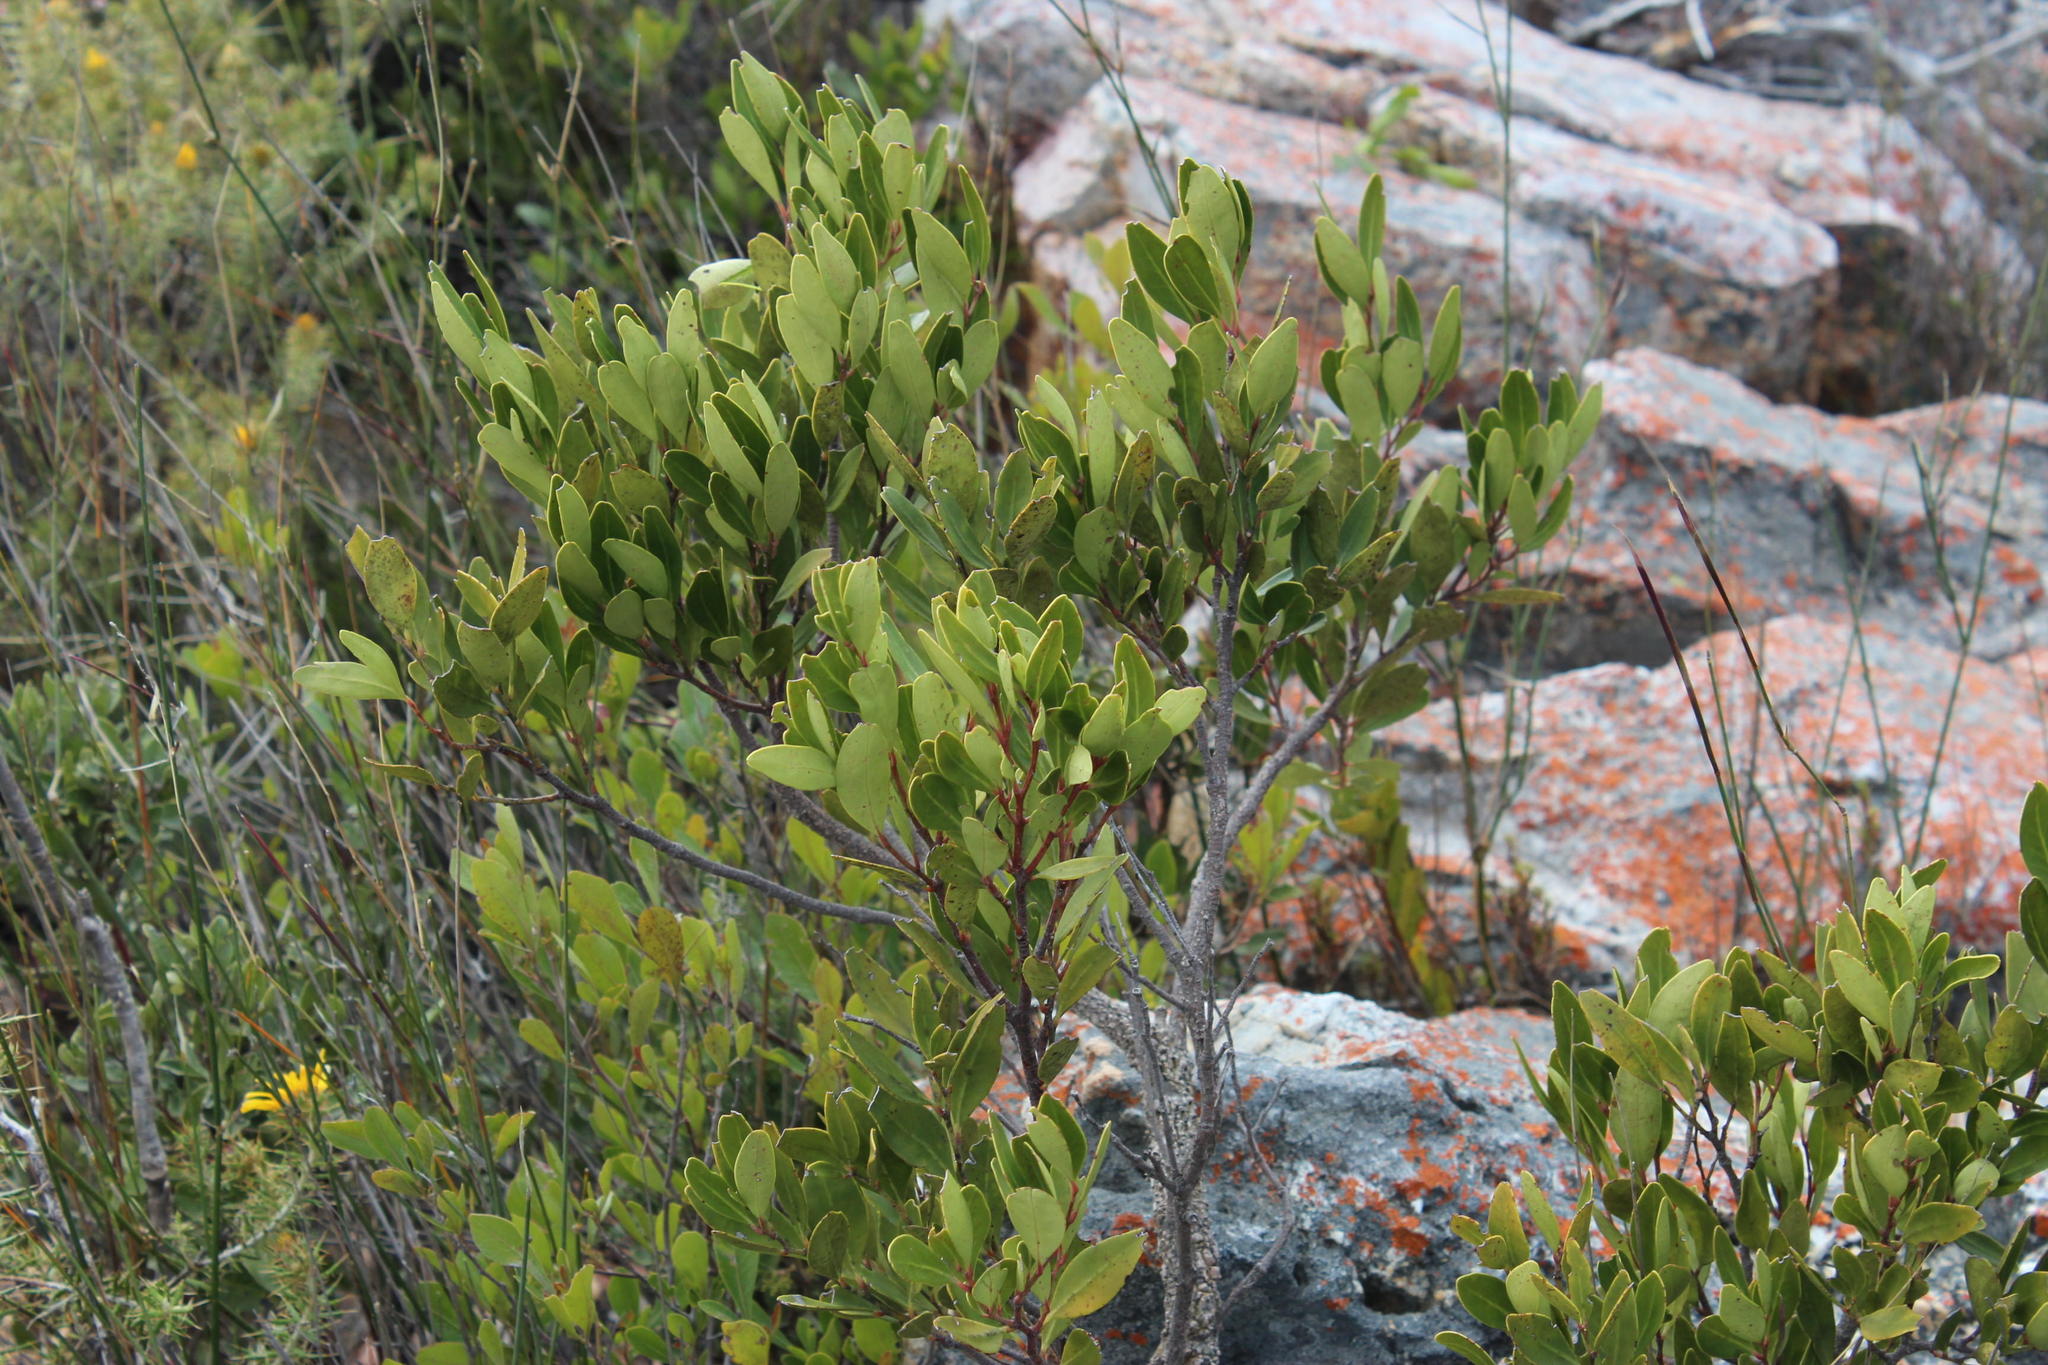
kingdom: Plantae
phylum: Tracheophyta
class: Magnoliopsida
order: Celastrales
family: Celastraceae
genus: Gymnosporia
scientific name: Gymnosporia laurina
